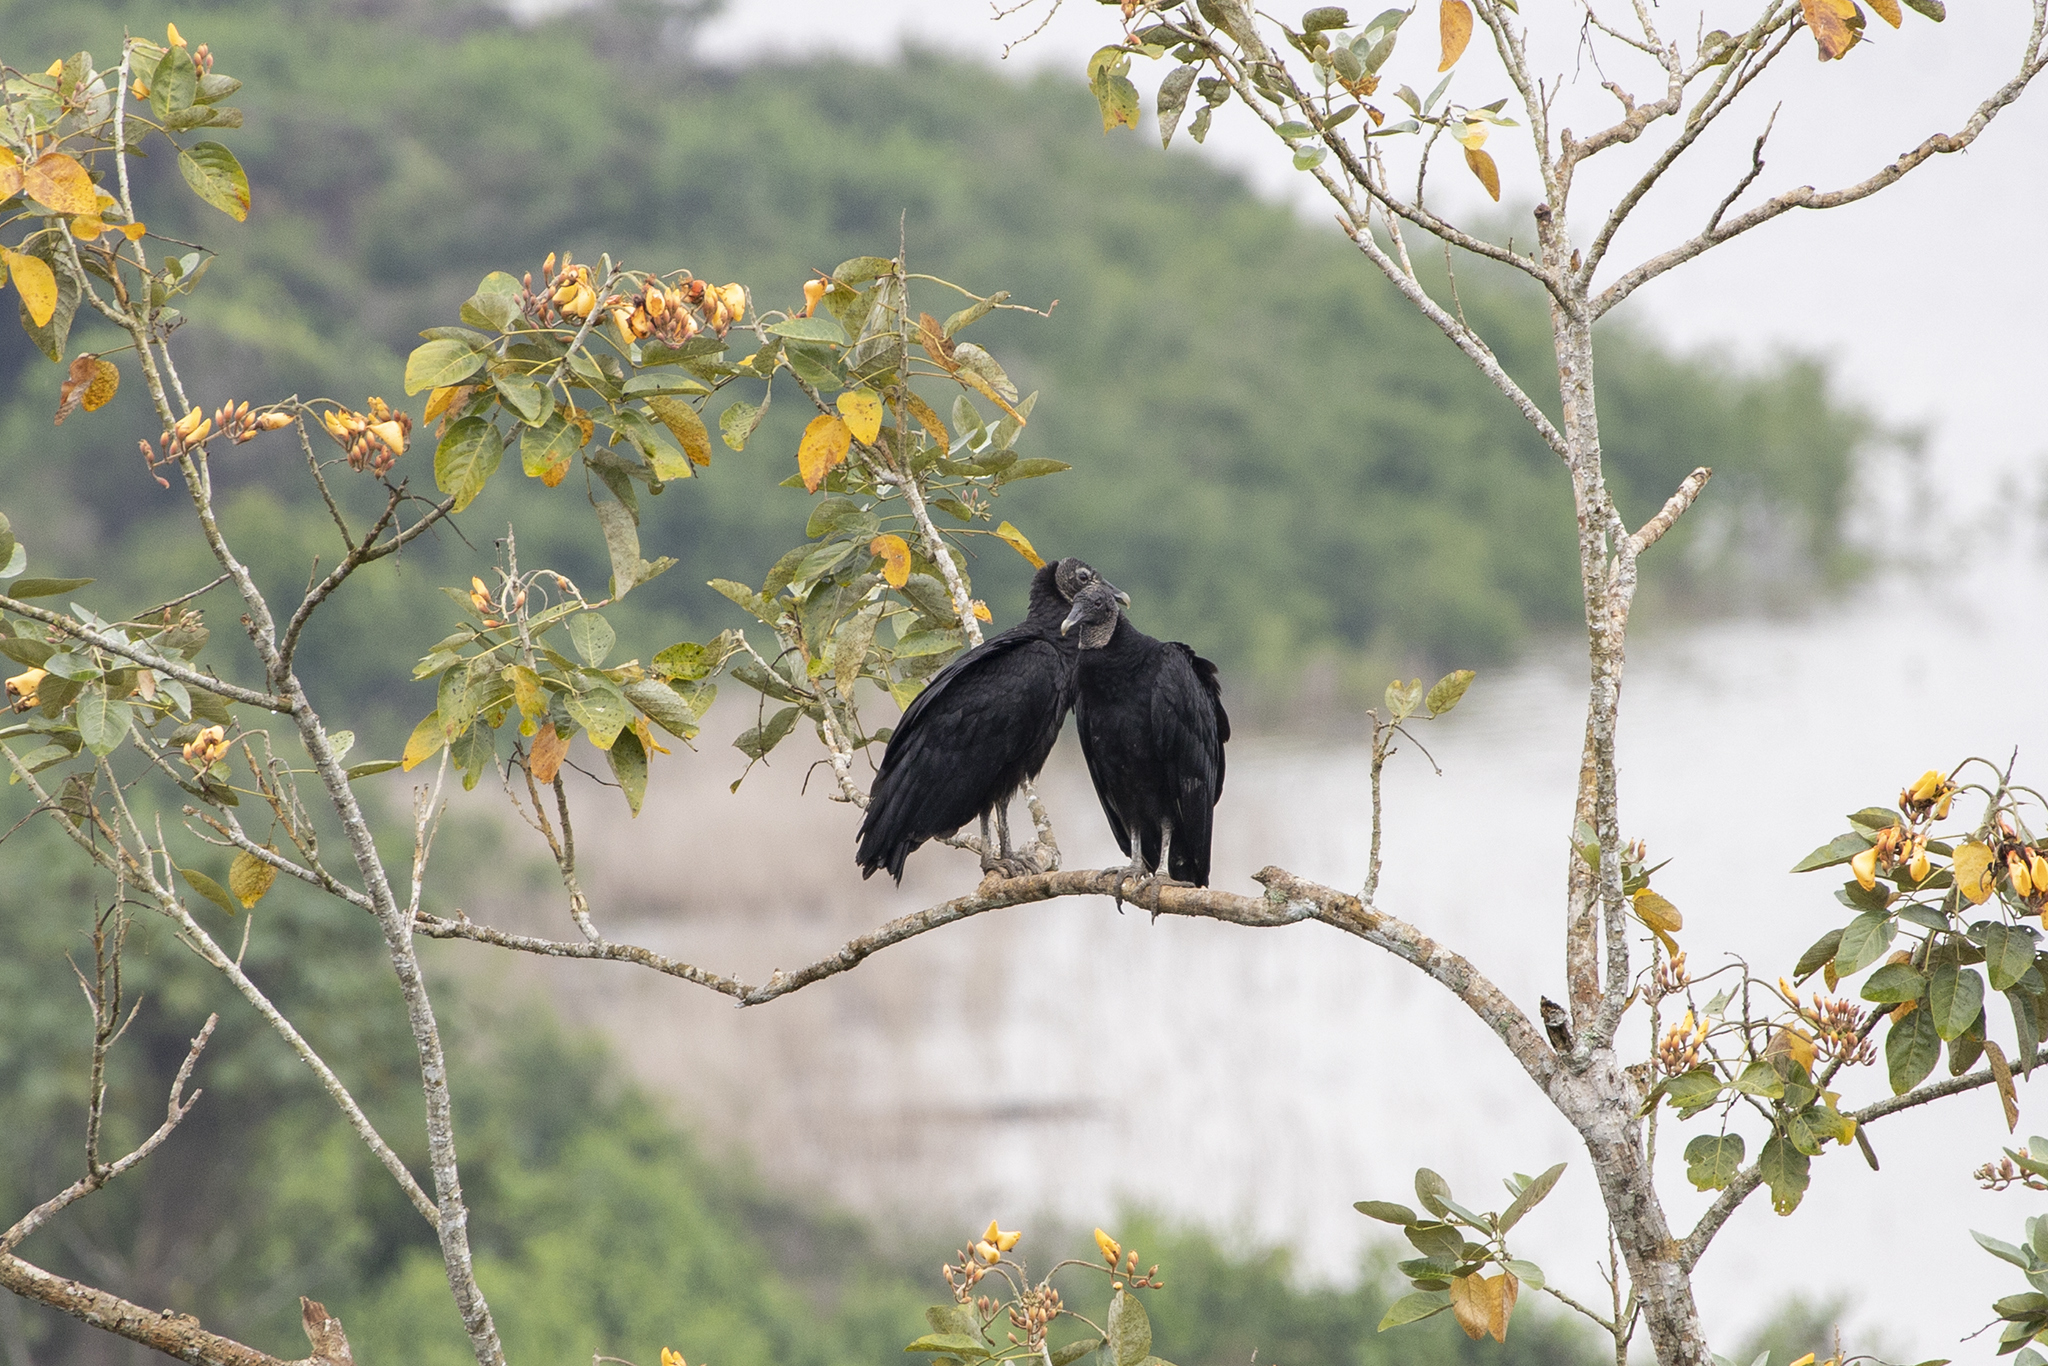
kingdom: Animalia
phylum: Chordata
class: Aves
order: Accipitriformes
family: Cathartidae
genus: Coragyps
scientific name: Coragyps atratus
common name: Black vulture
